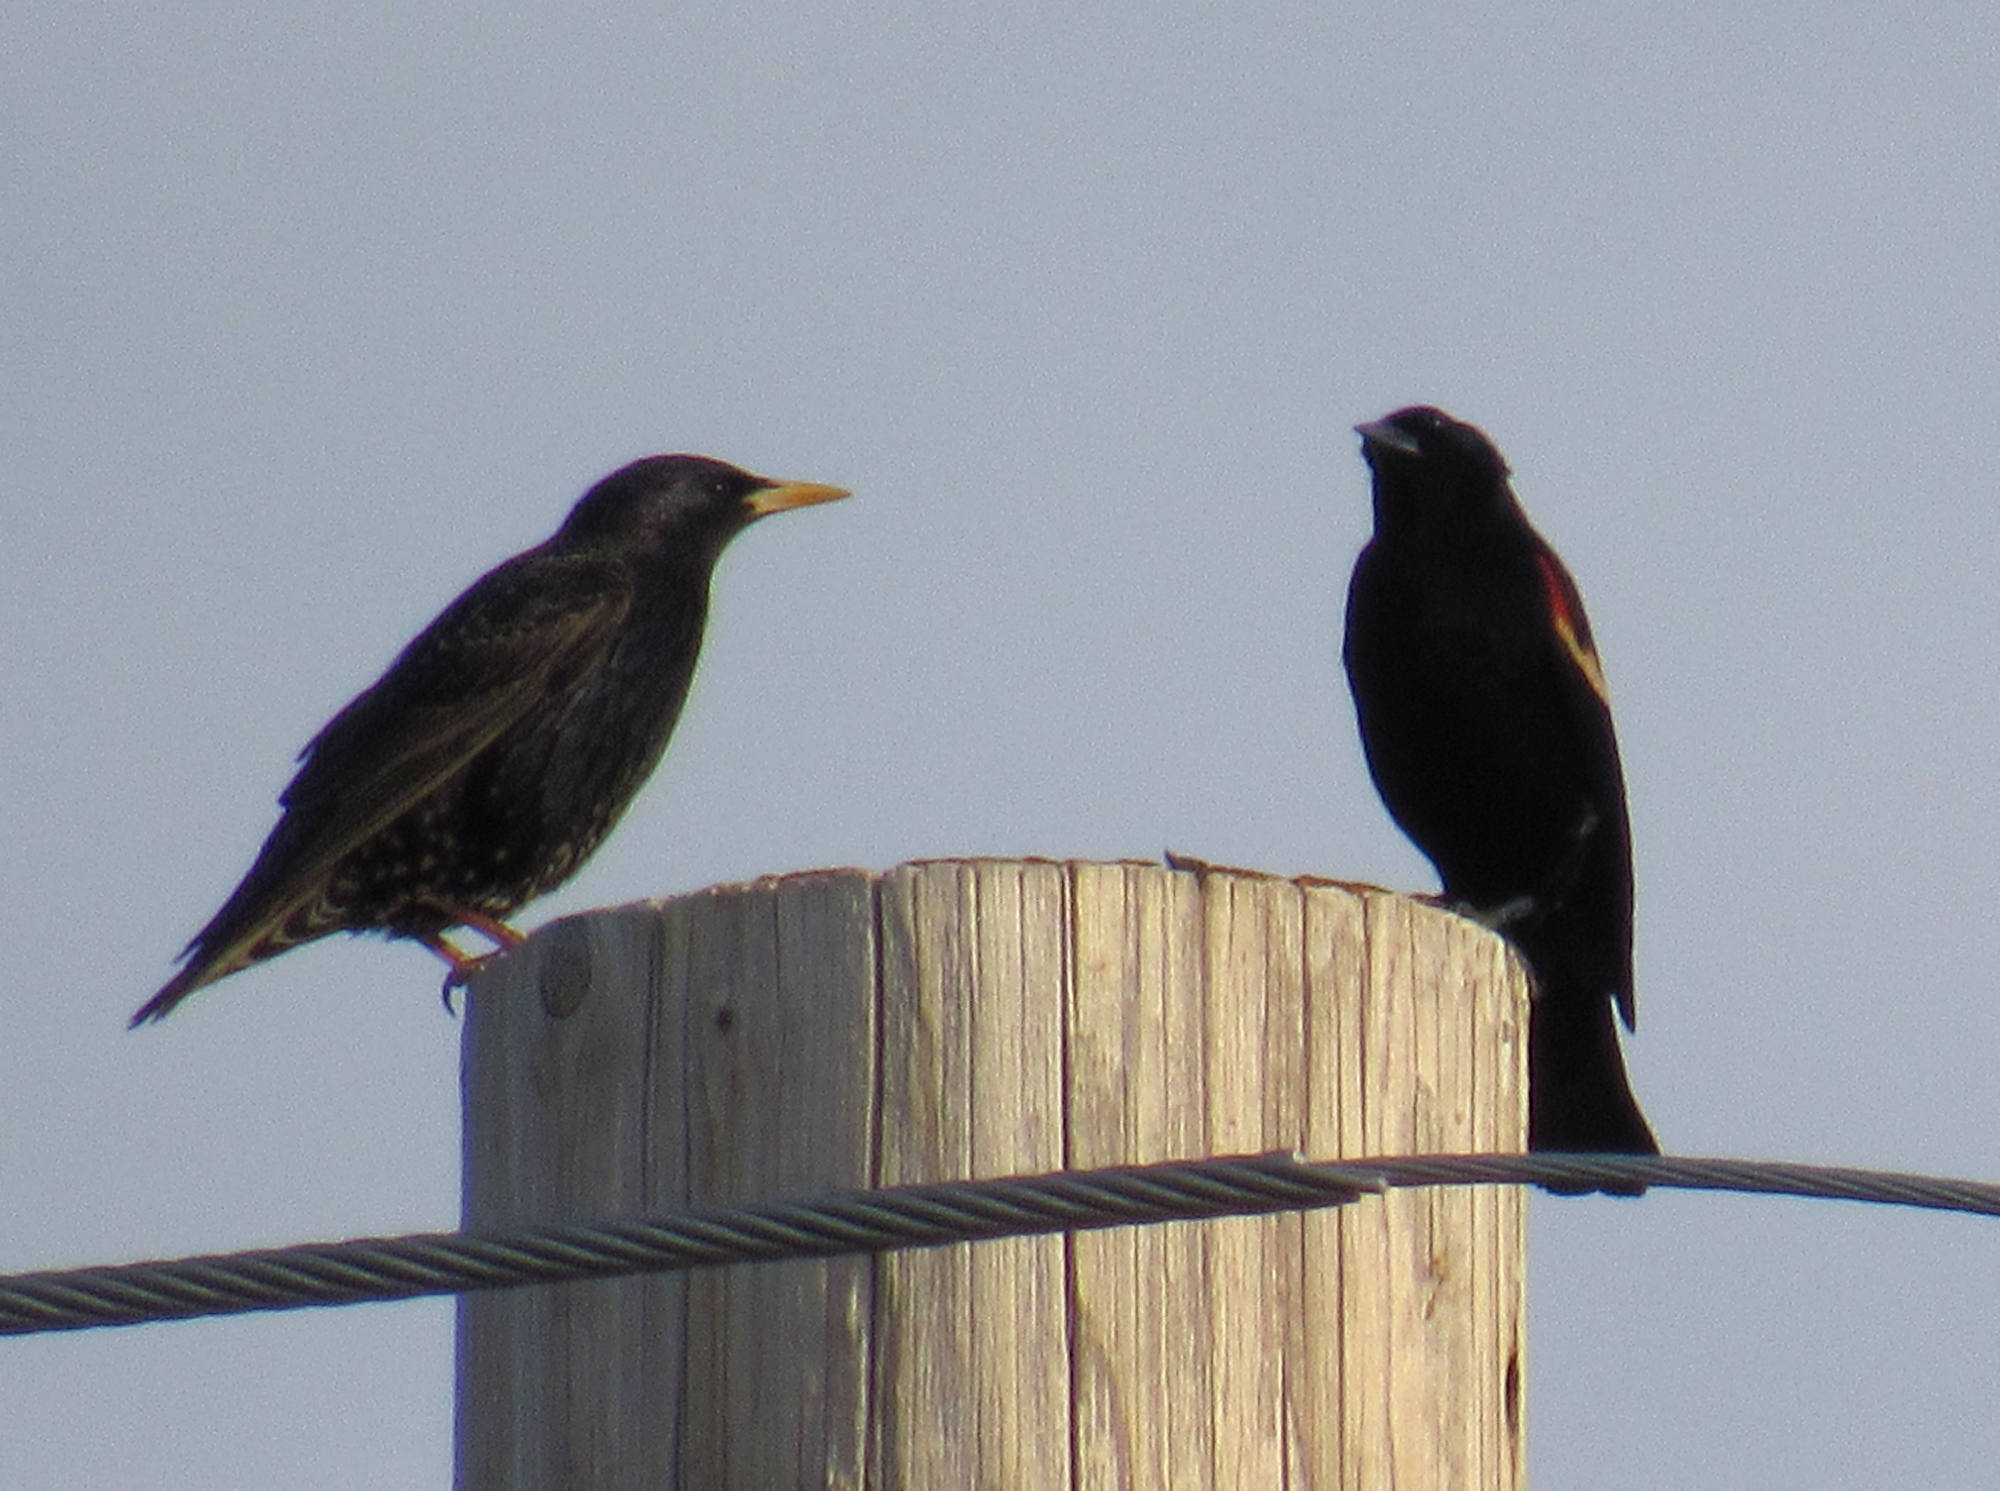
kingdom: Animalia
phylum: Chordata
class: Aves
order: Passeriformes
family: Sturnidae
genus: Sturnus
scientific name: Sturnus vulgaris
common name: Common starling
